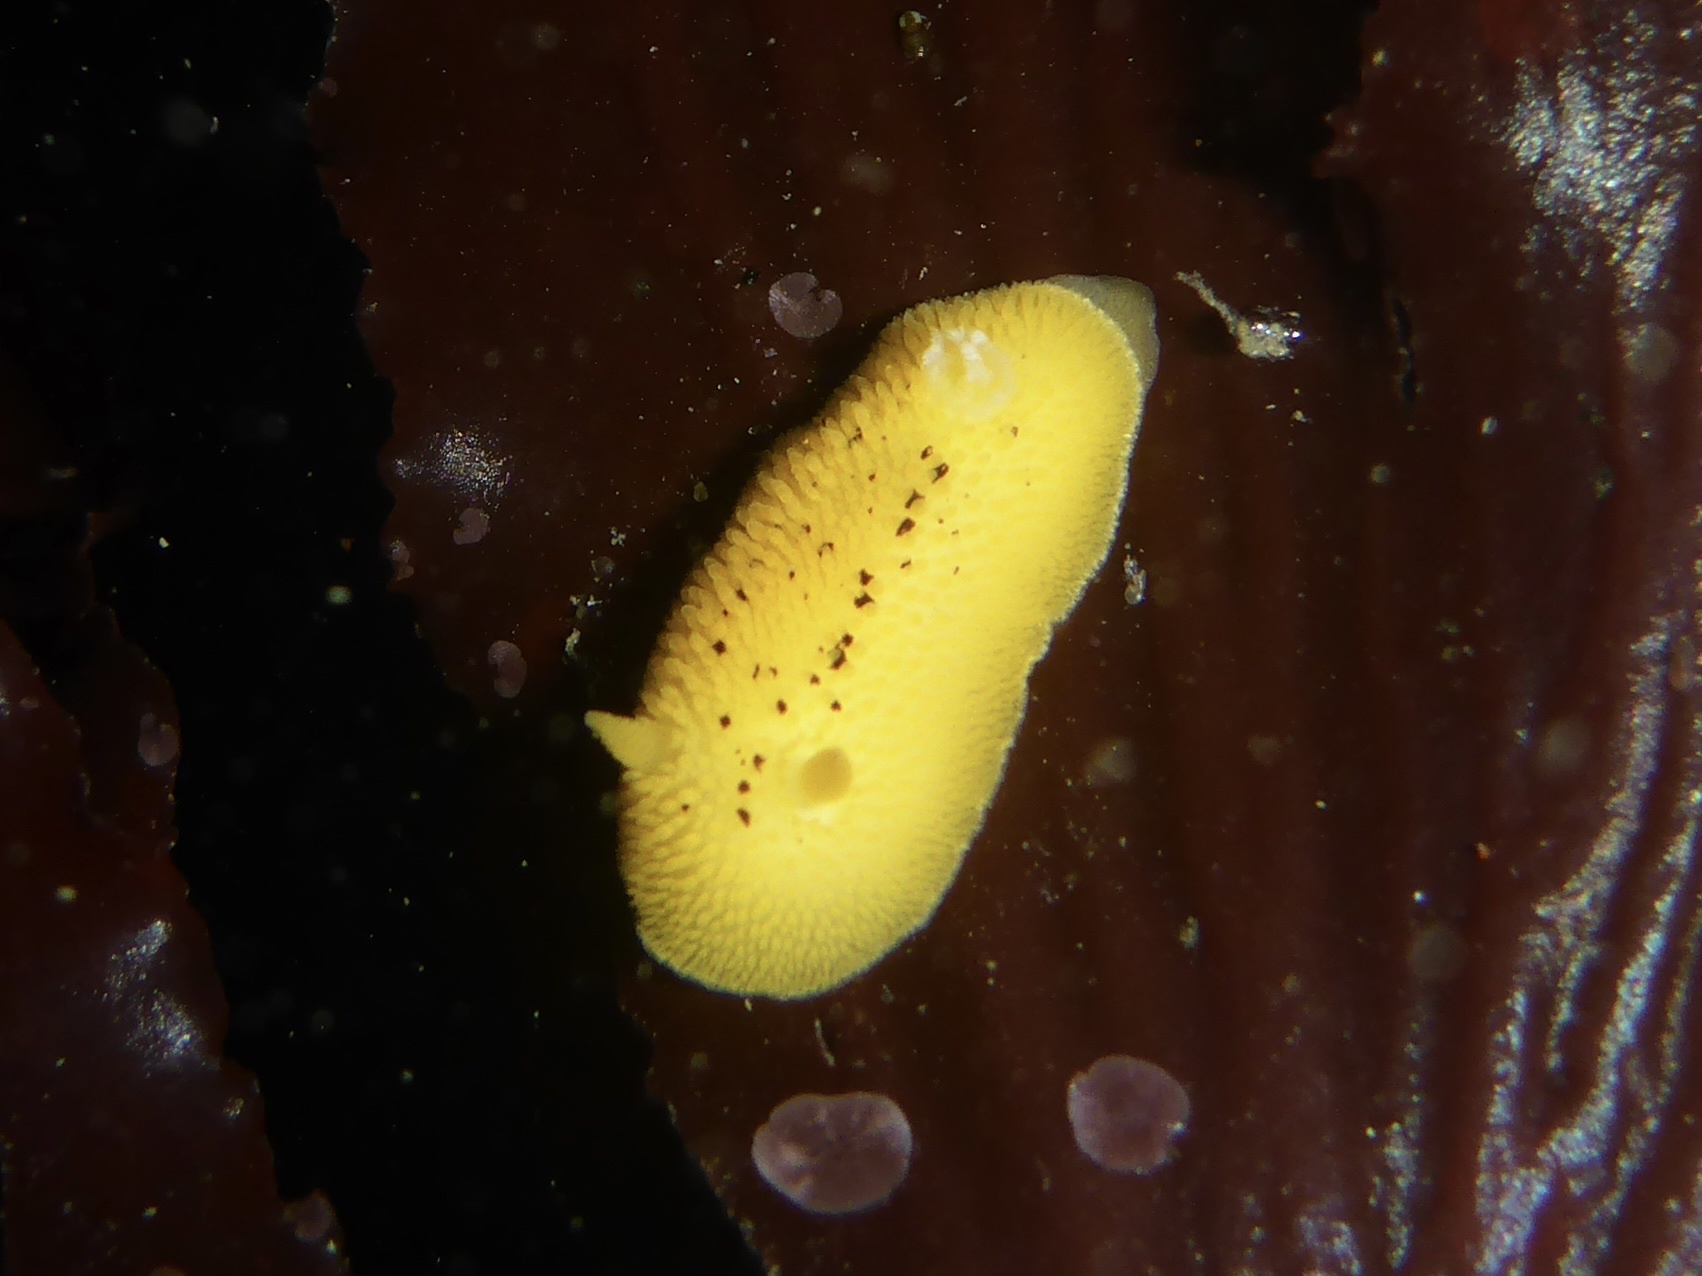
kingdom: Animalia
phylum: Mollusca
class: Gastropoda
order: Nudibranchia
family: Discodorididae
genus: Peltodoris
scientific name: Peltodoris nobilis
